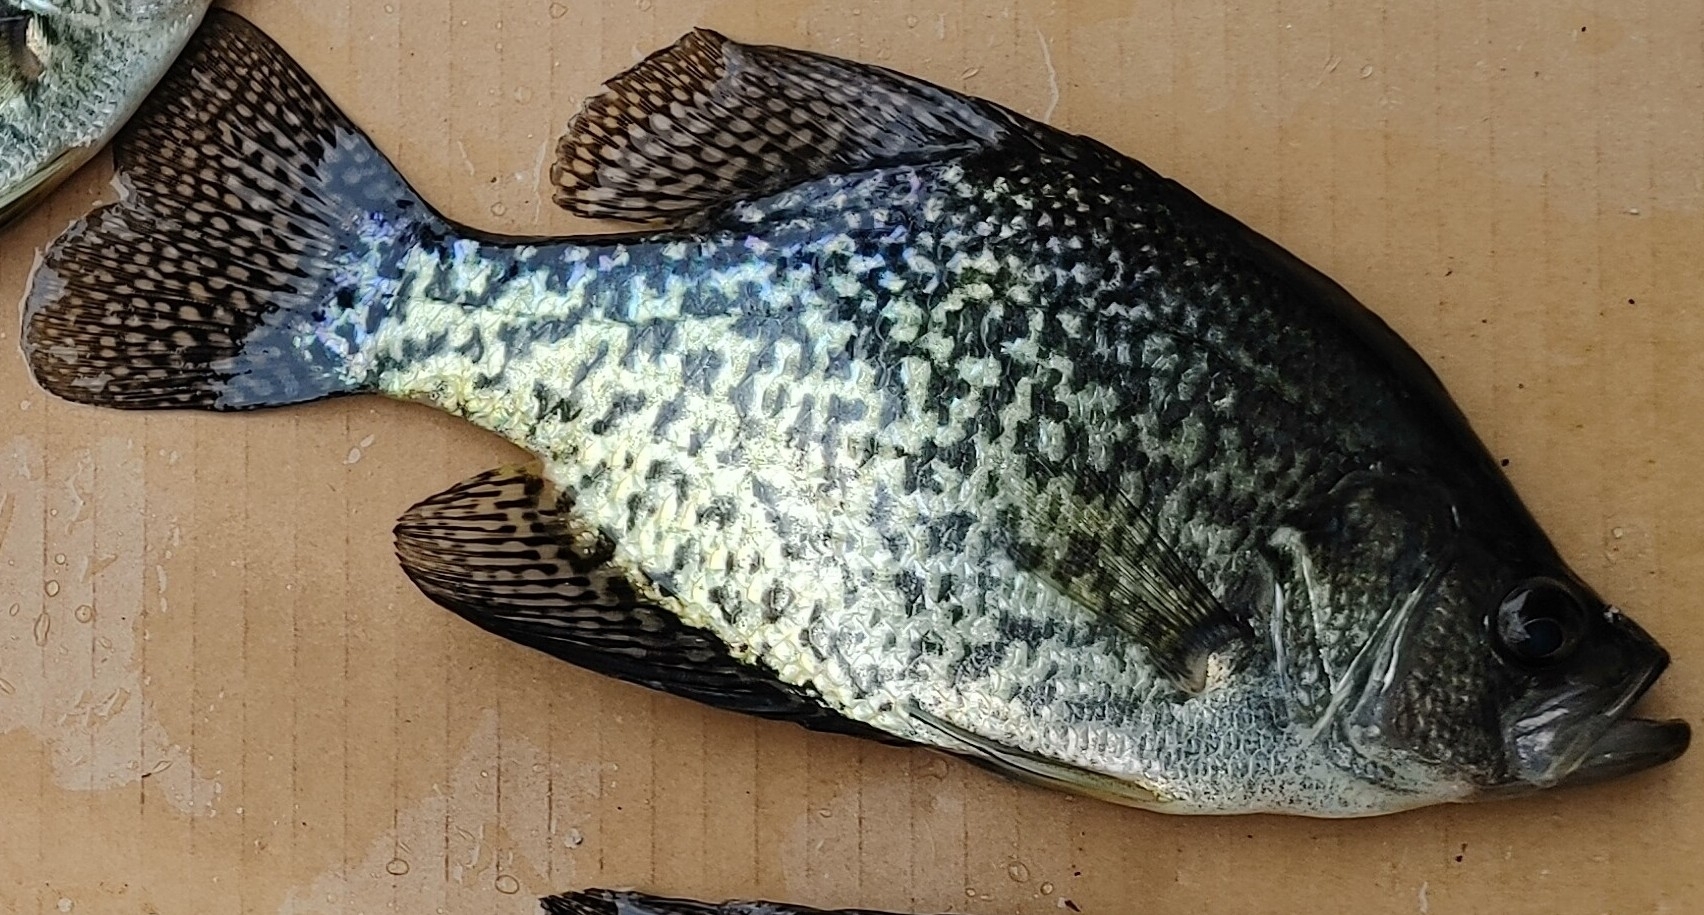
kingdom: Animalia
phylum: Chordata
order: Perciformes
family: Centrarchidae
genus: Pomoxis
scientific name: Pomoxis nigromaculatus
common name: Black crappie
